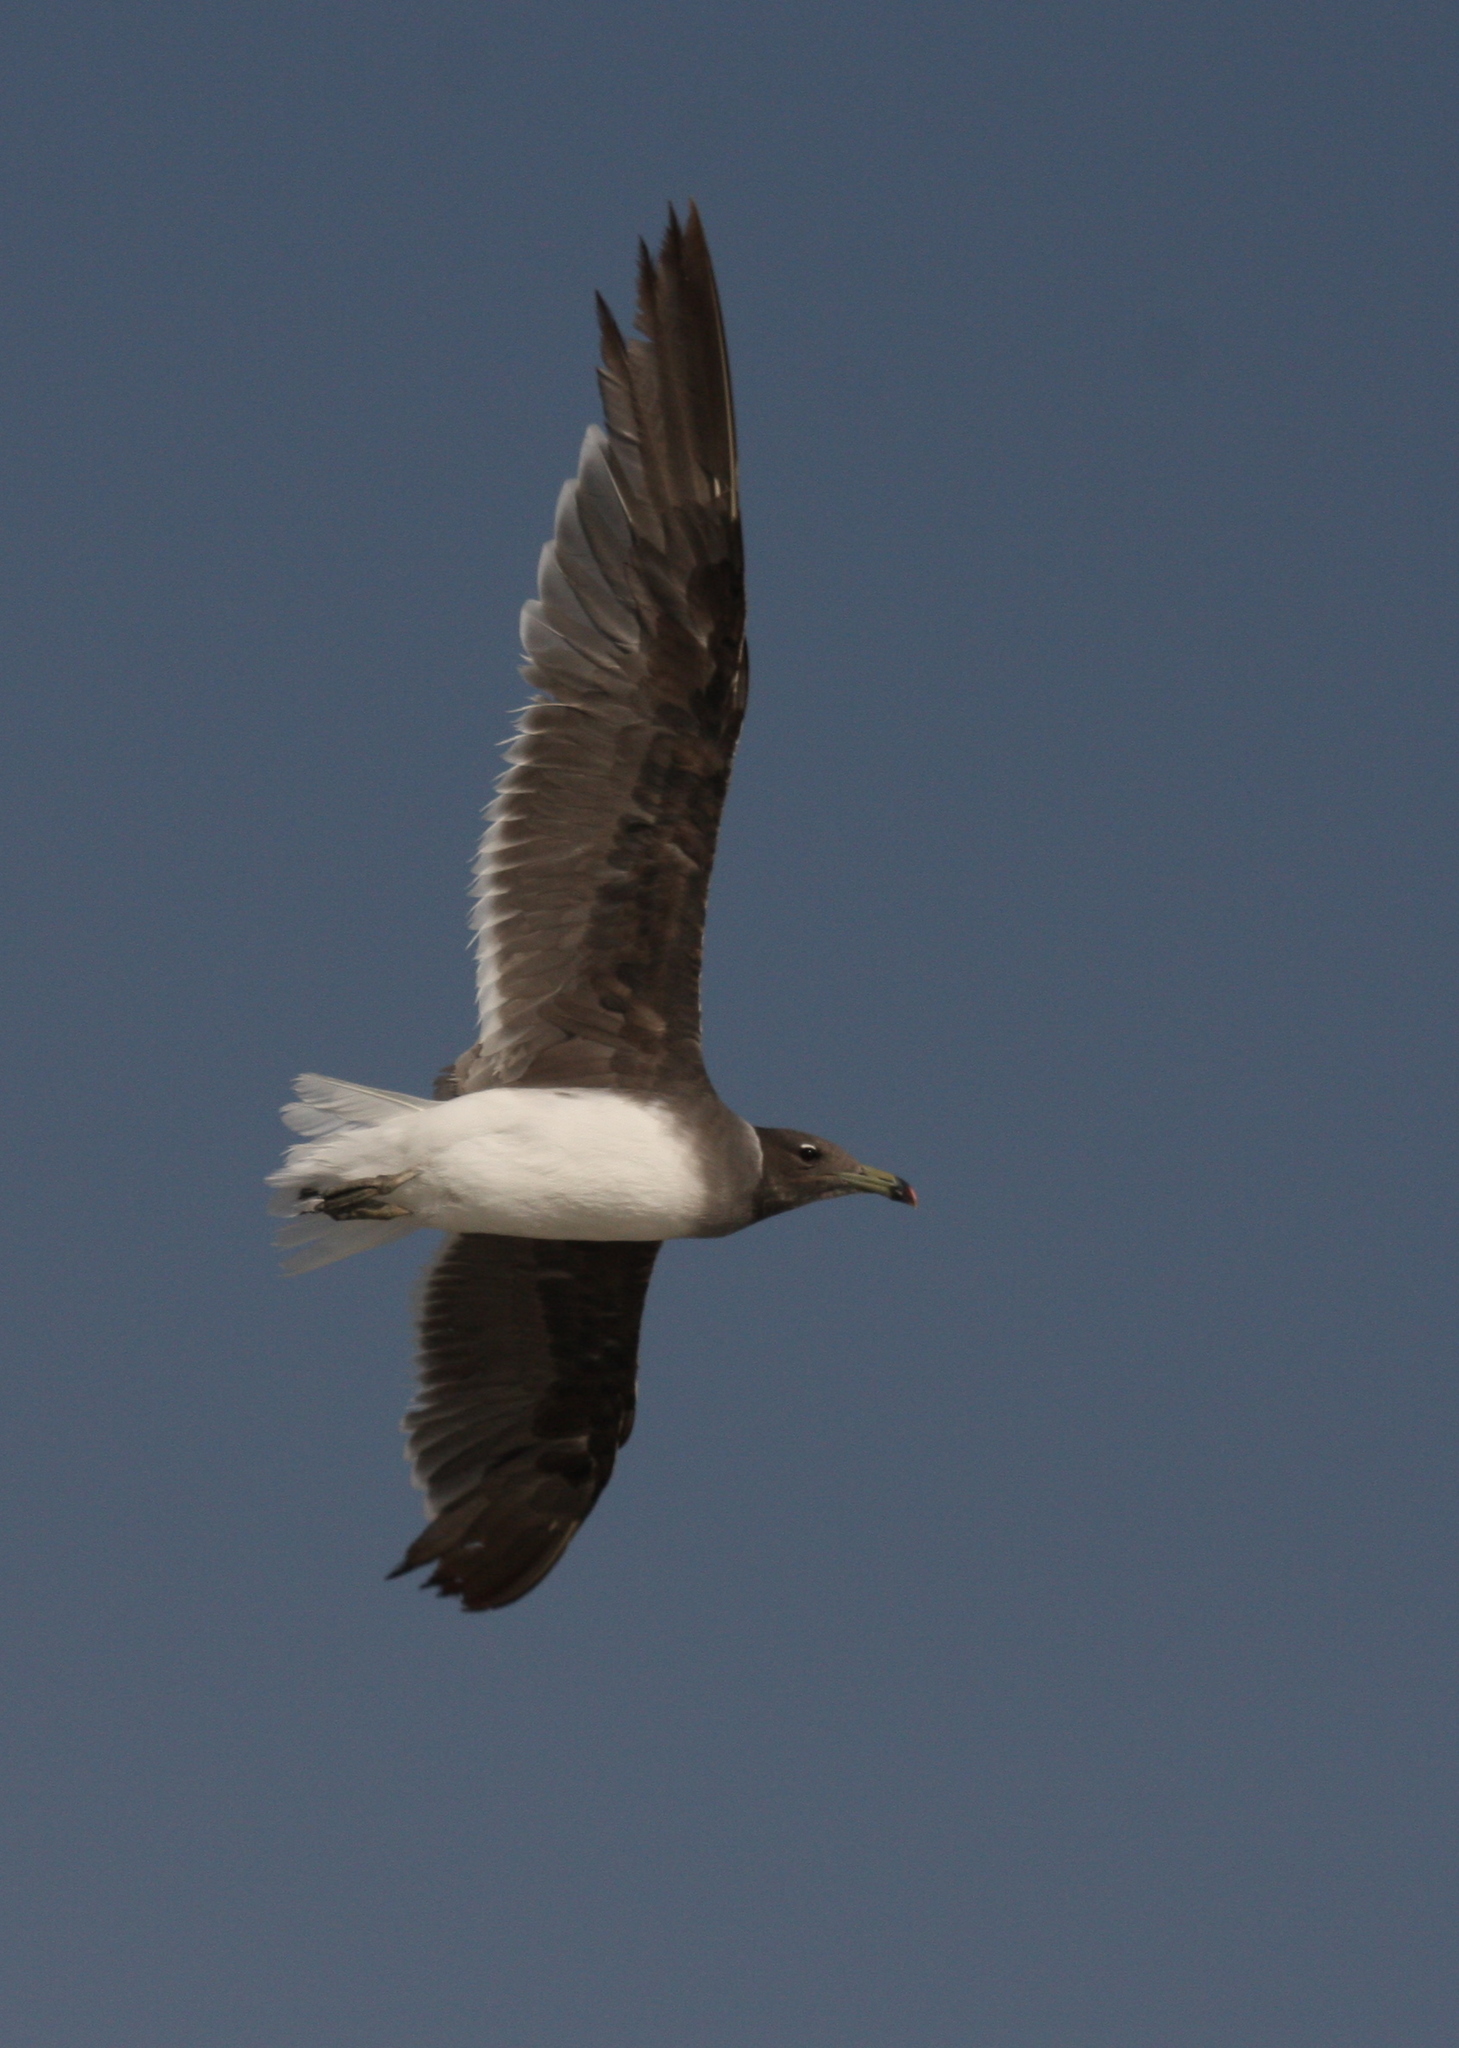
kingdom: Animalia
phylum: Chordata
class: Aves
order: Charadriiformes
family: Laridae
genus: Ichthyaetus
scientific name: Ichthyaetus hemprichii
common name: Sooty gull
